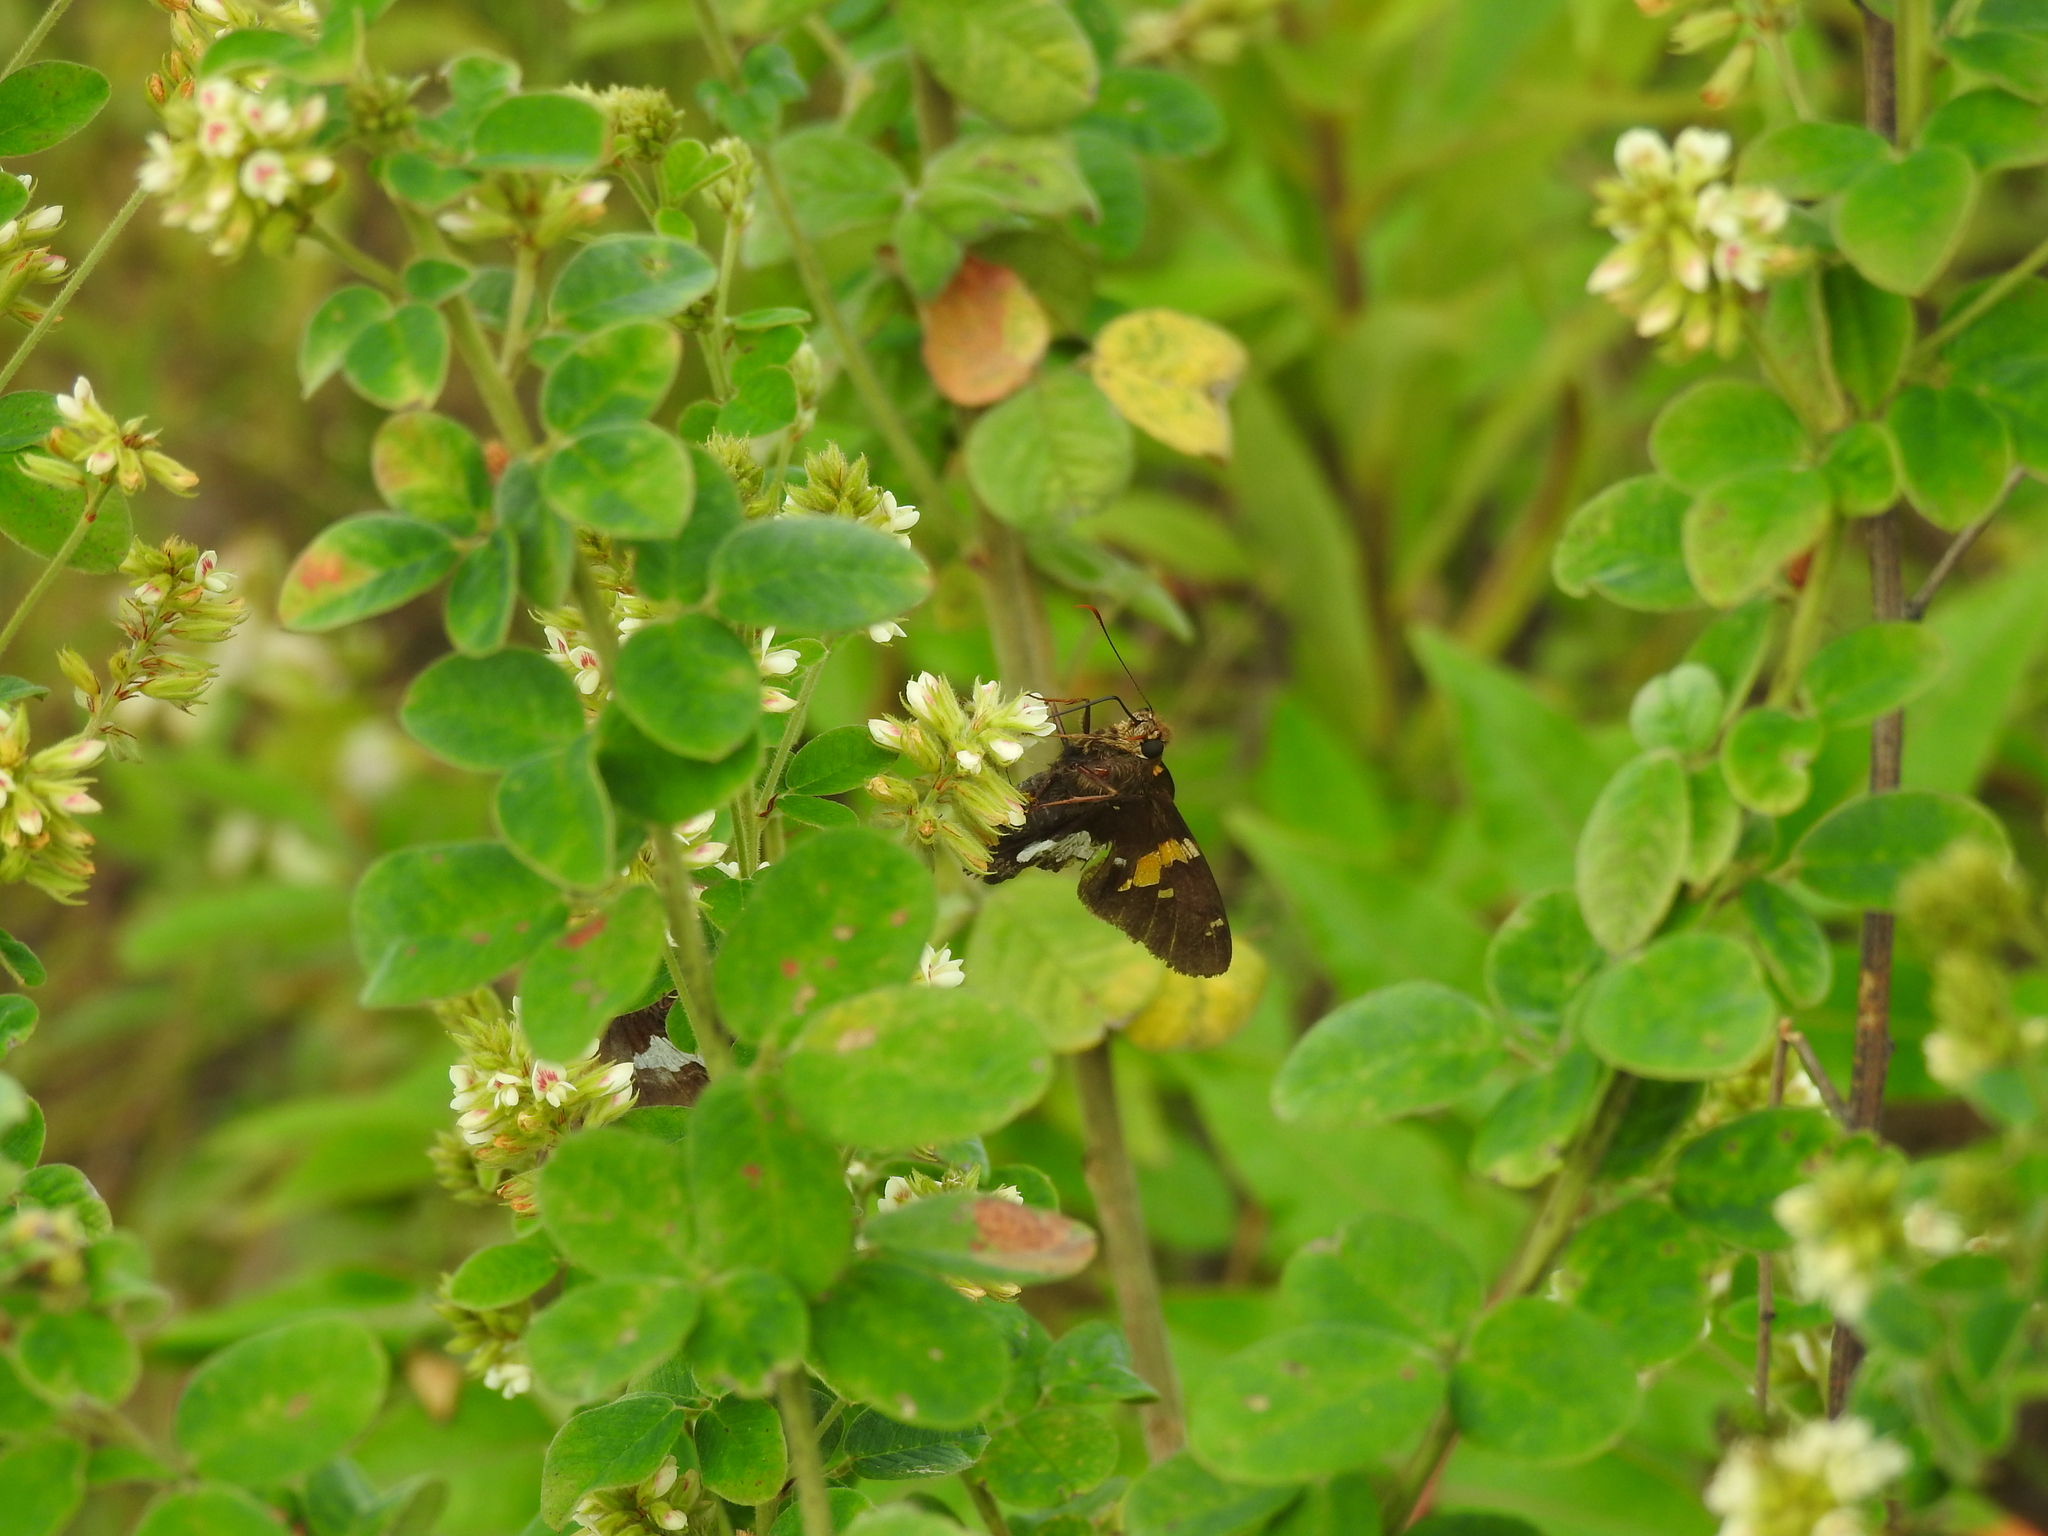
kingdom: Animalia
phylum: Arthropoda
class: Insecta
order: Lepidoptera
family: Hesperiidae
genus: Epargyreus
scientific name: Epargyreus clarus
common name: Silver-spotted skipper
